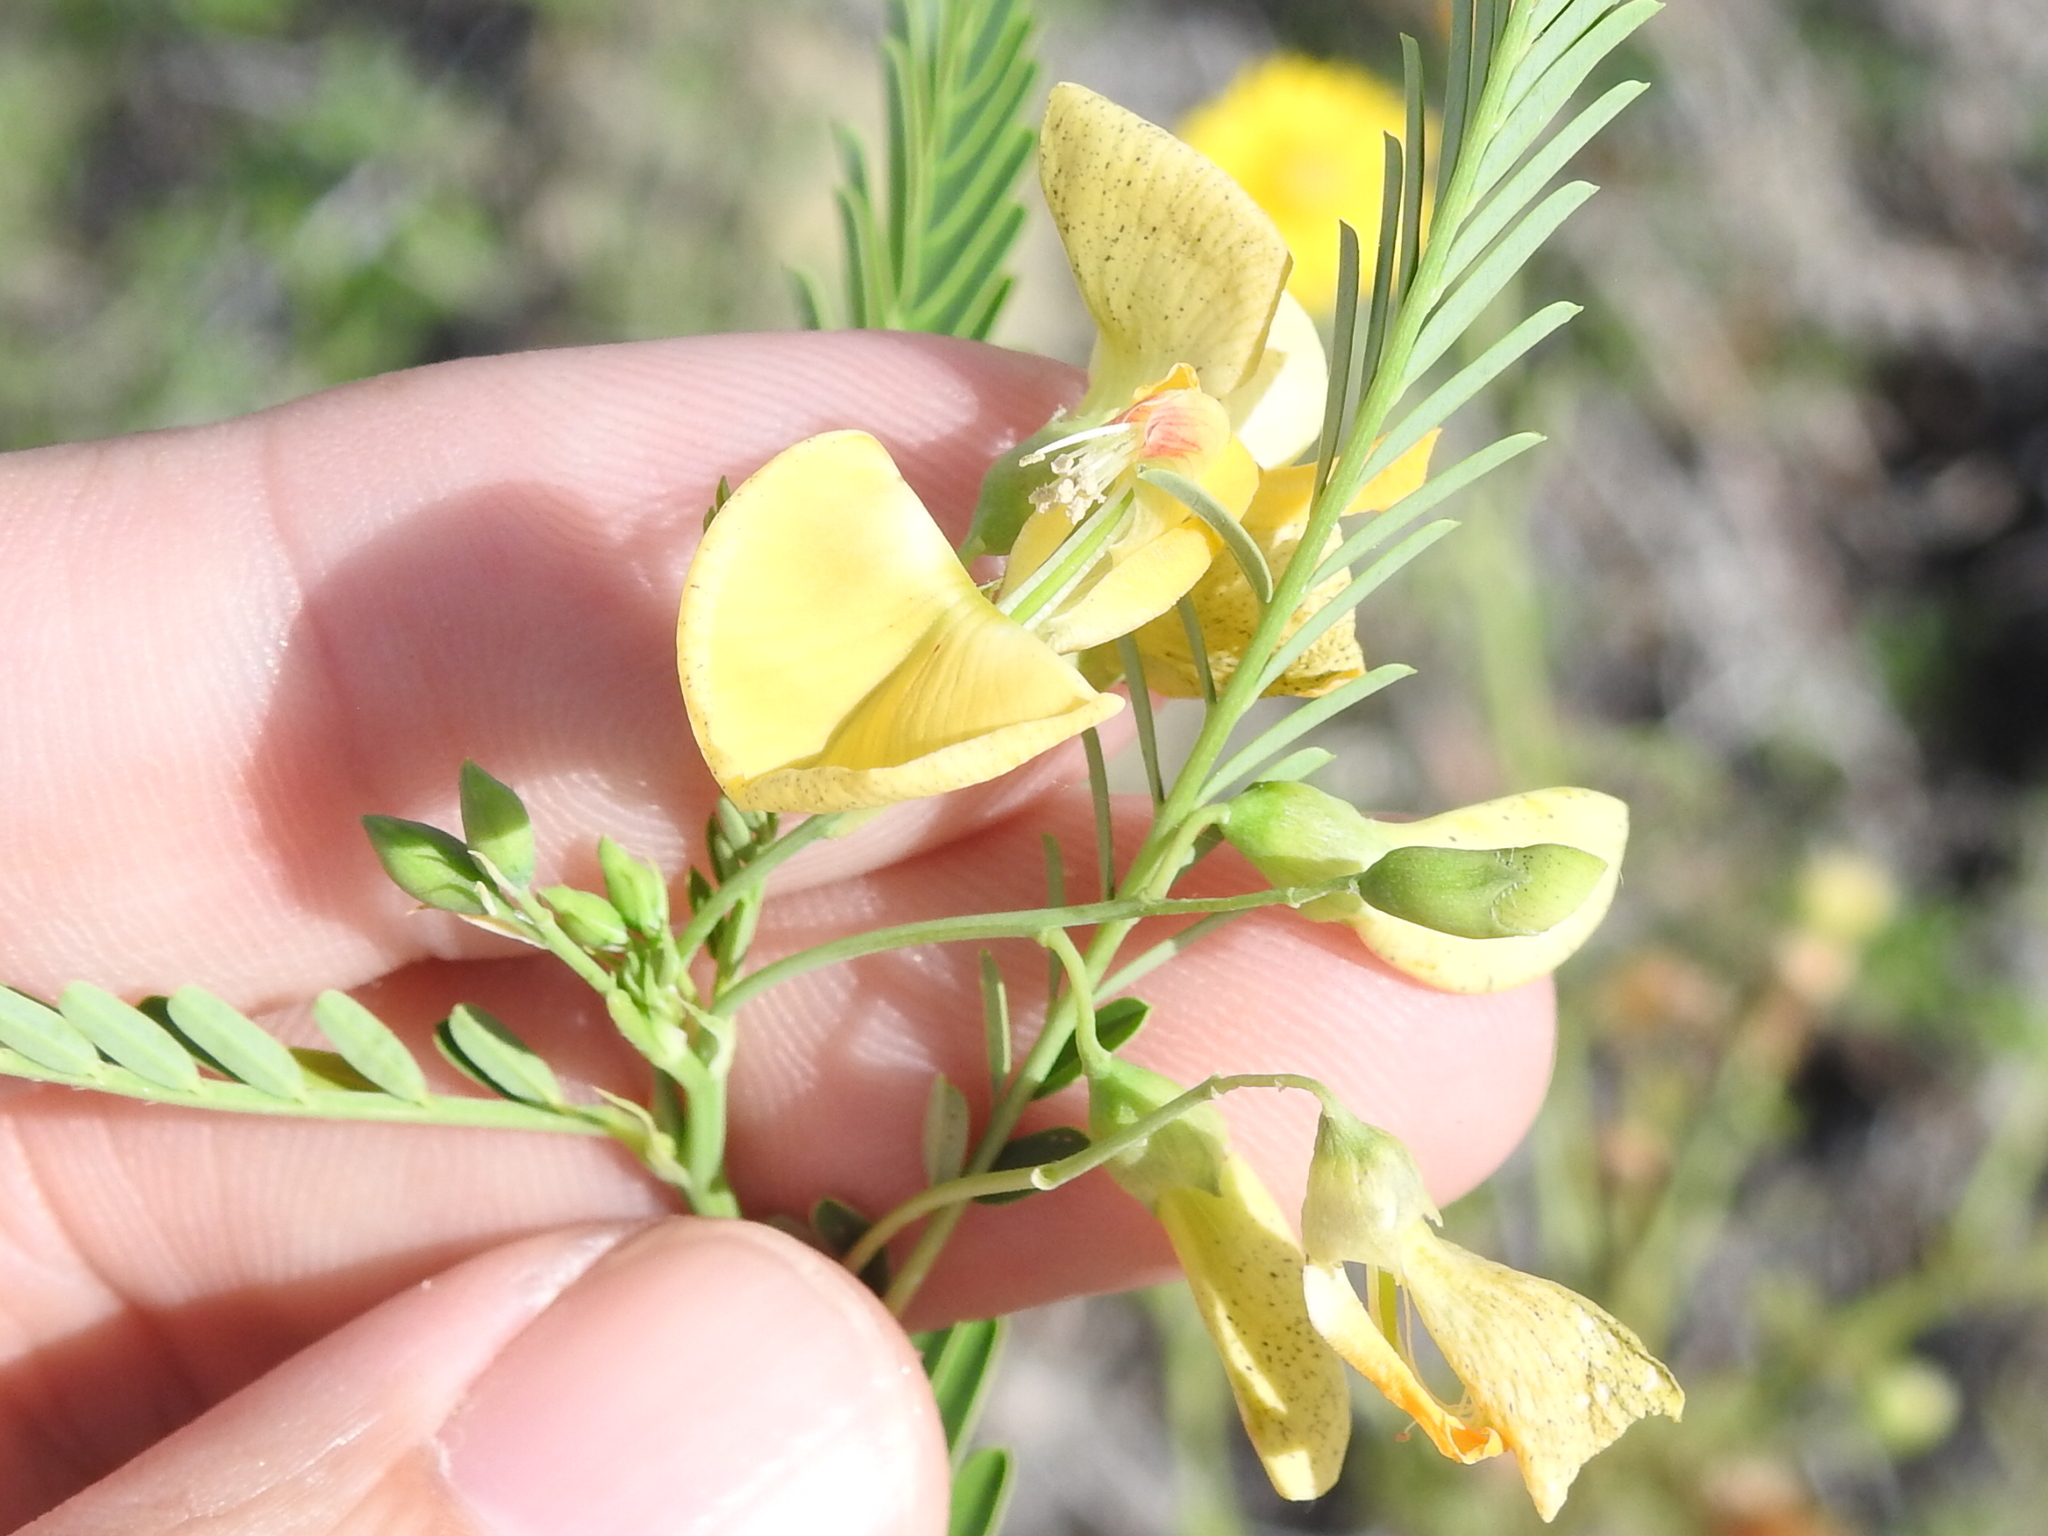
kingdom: Plantae
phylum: Tracheophyta
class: Magnoliopsida
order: Fabales
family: Fabaceae
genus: Sesbania
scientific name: Sesbania herbacea
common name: Bigpod sesbania
